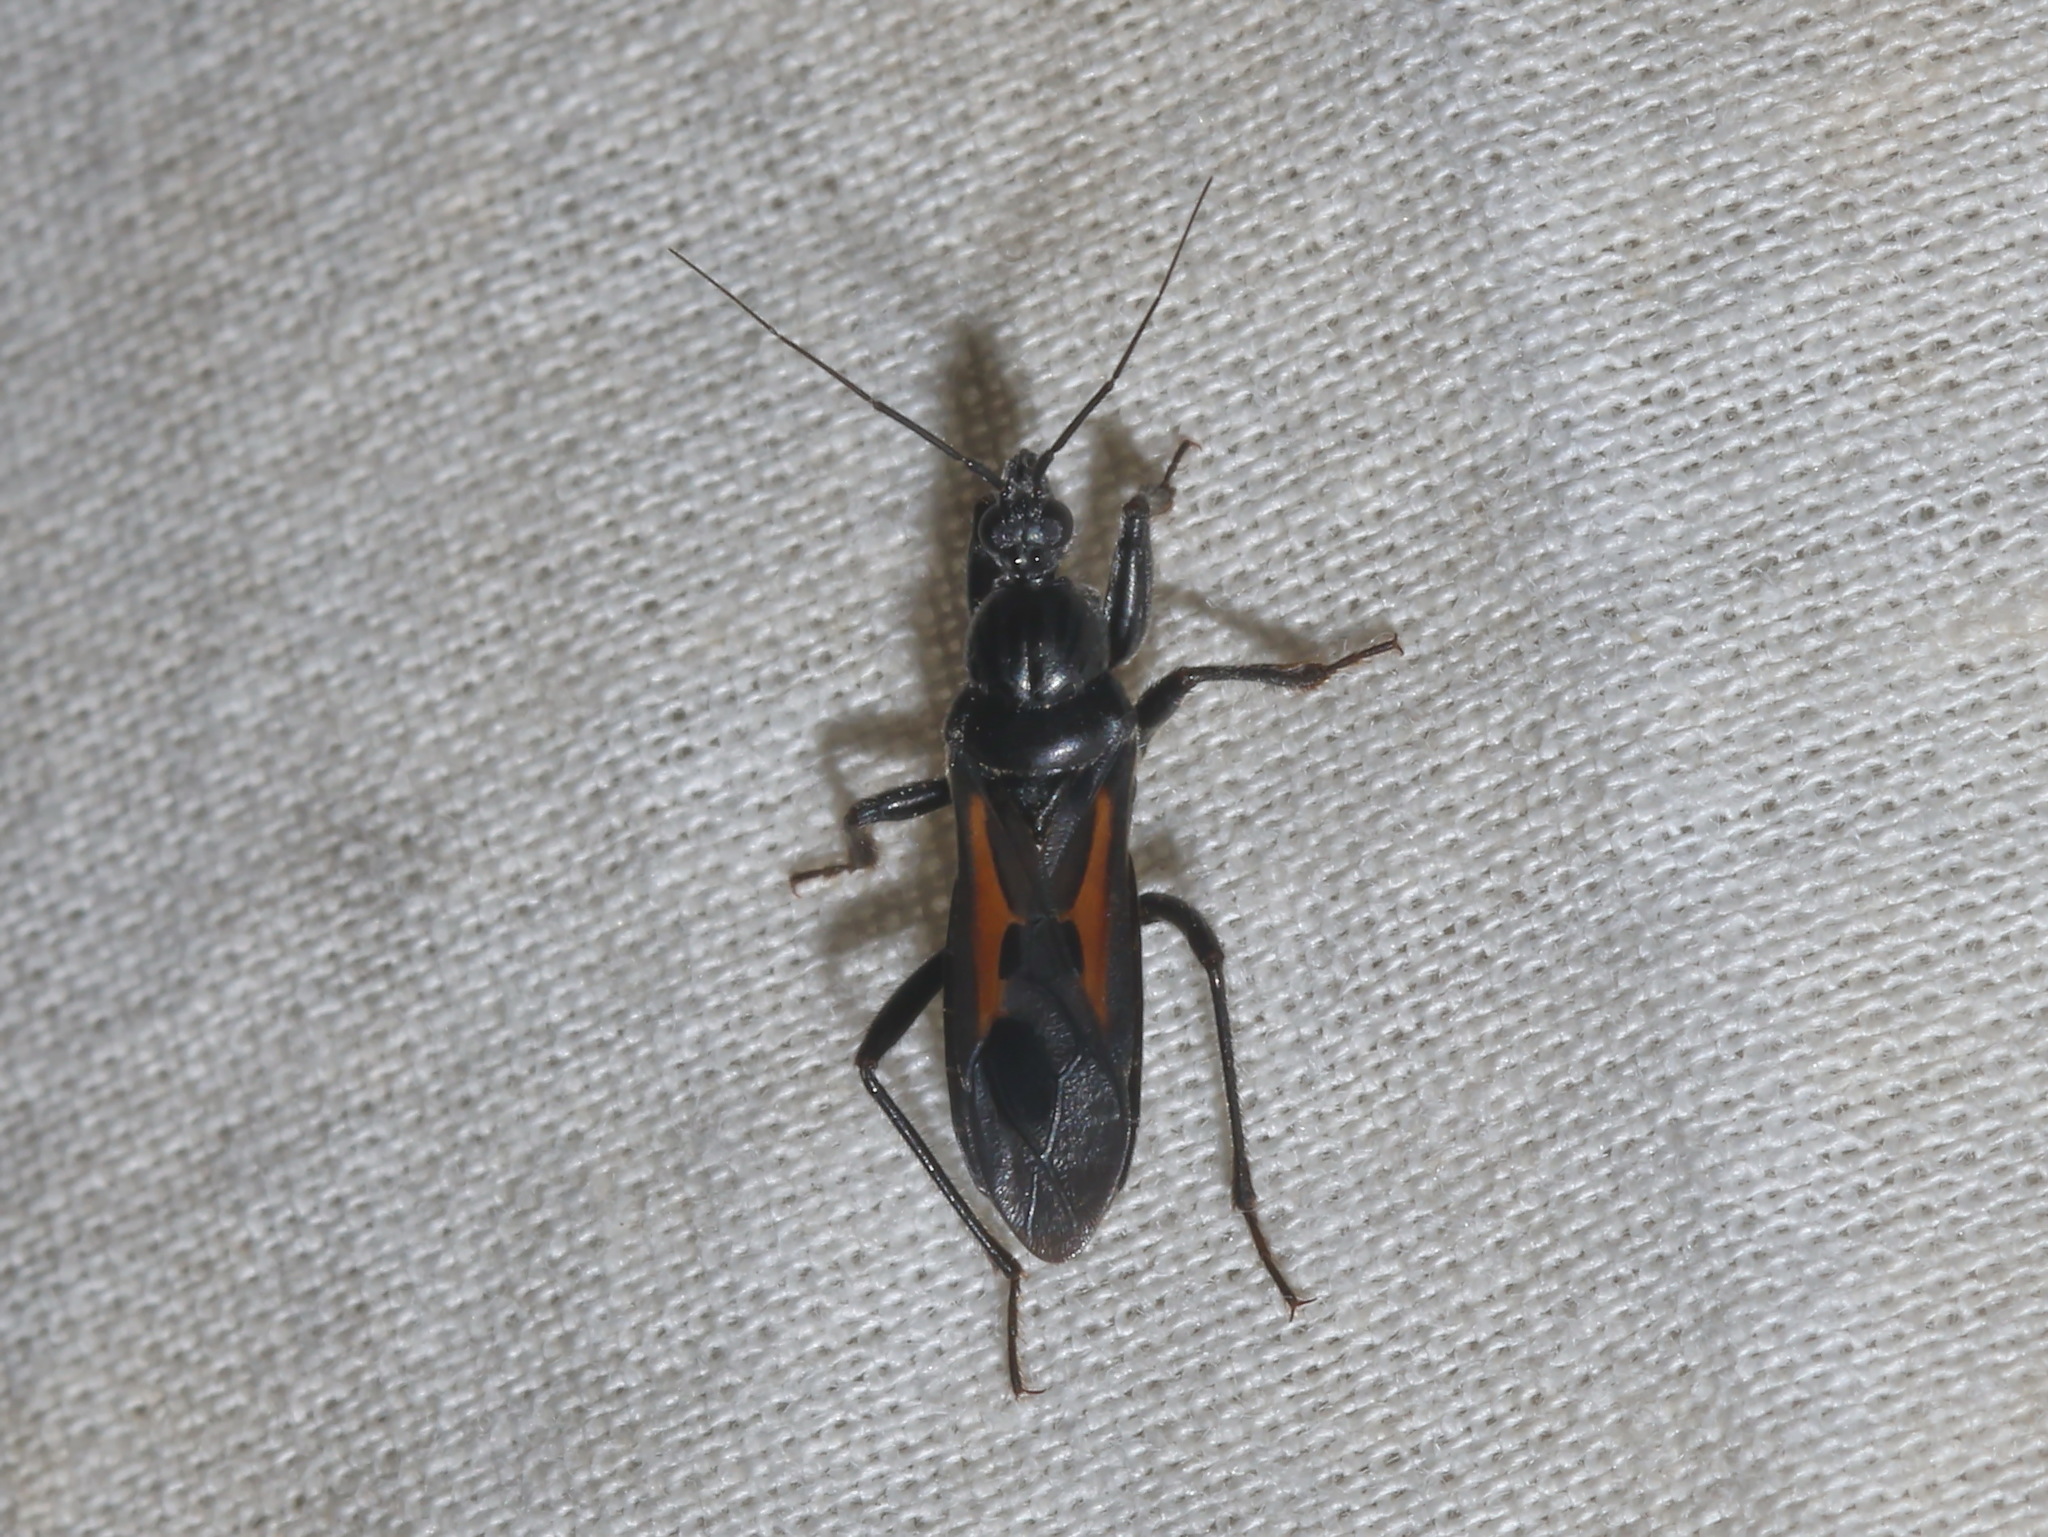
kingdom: Animalia
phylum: Arthropoda
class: Insecta
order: Hemiptera
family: Reduviidae
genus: Peirates
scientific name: Peirates atromaculatus
